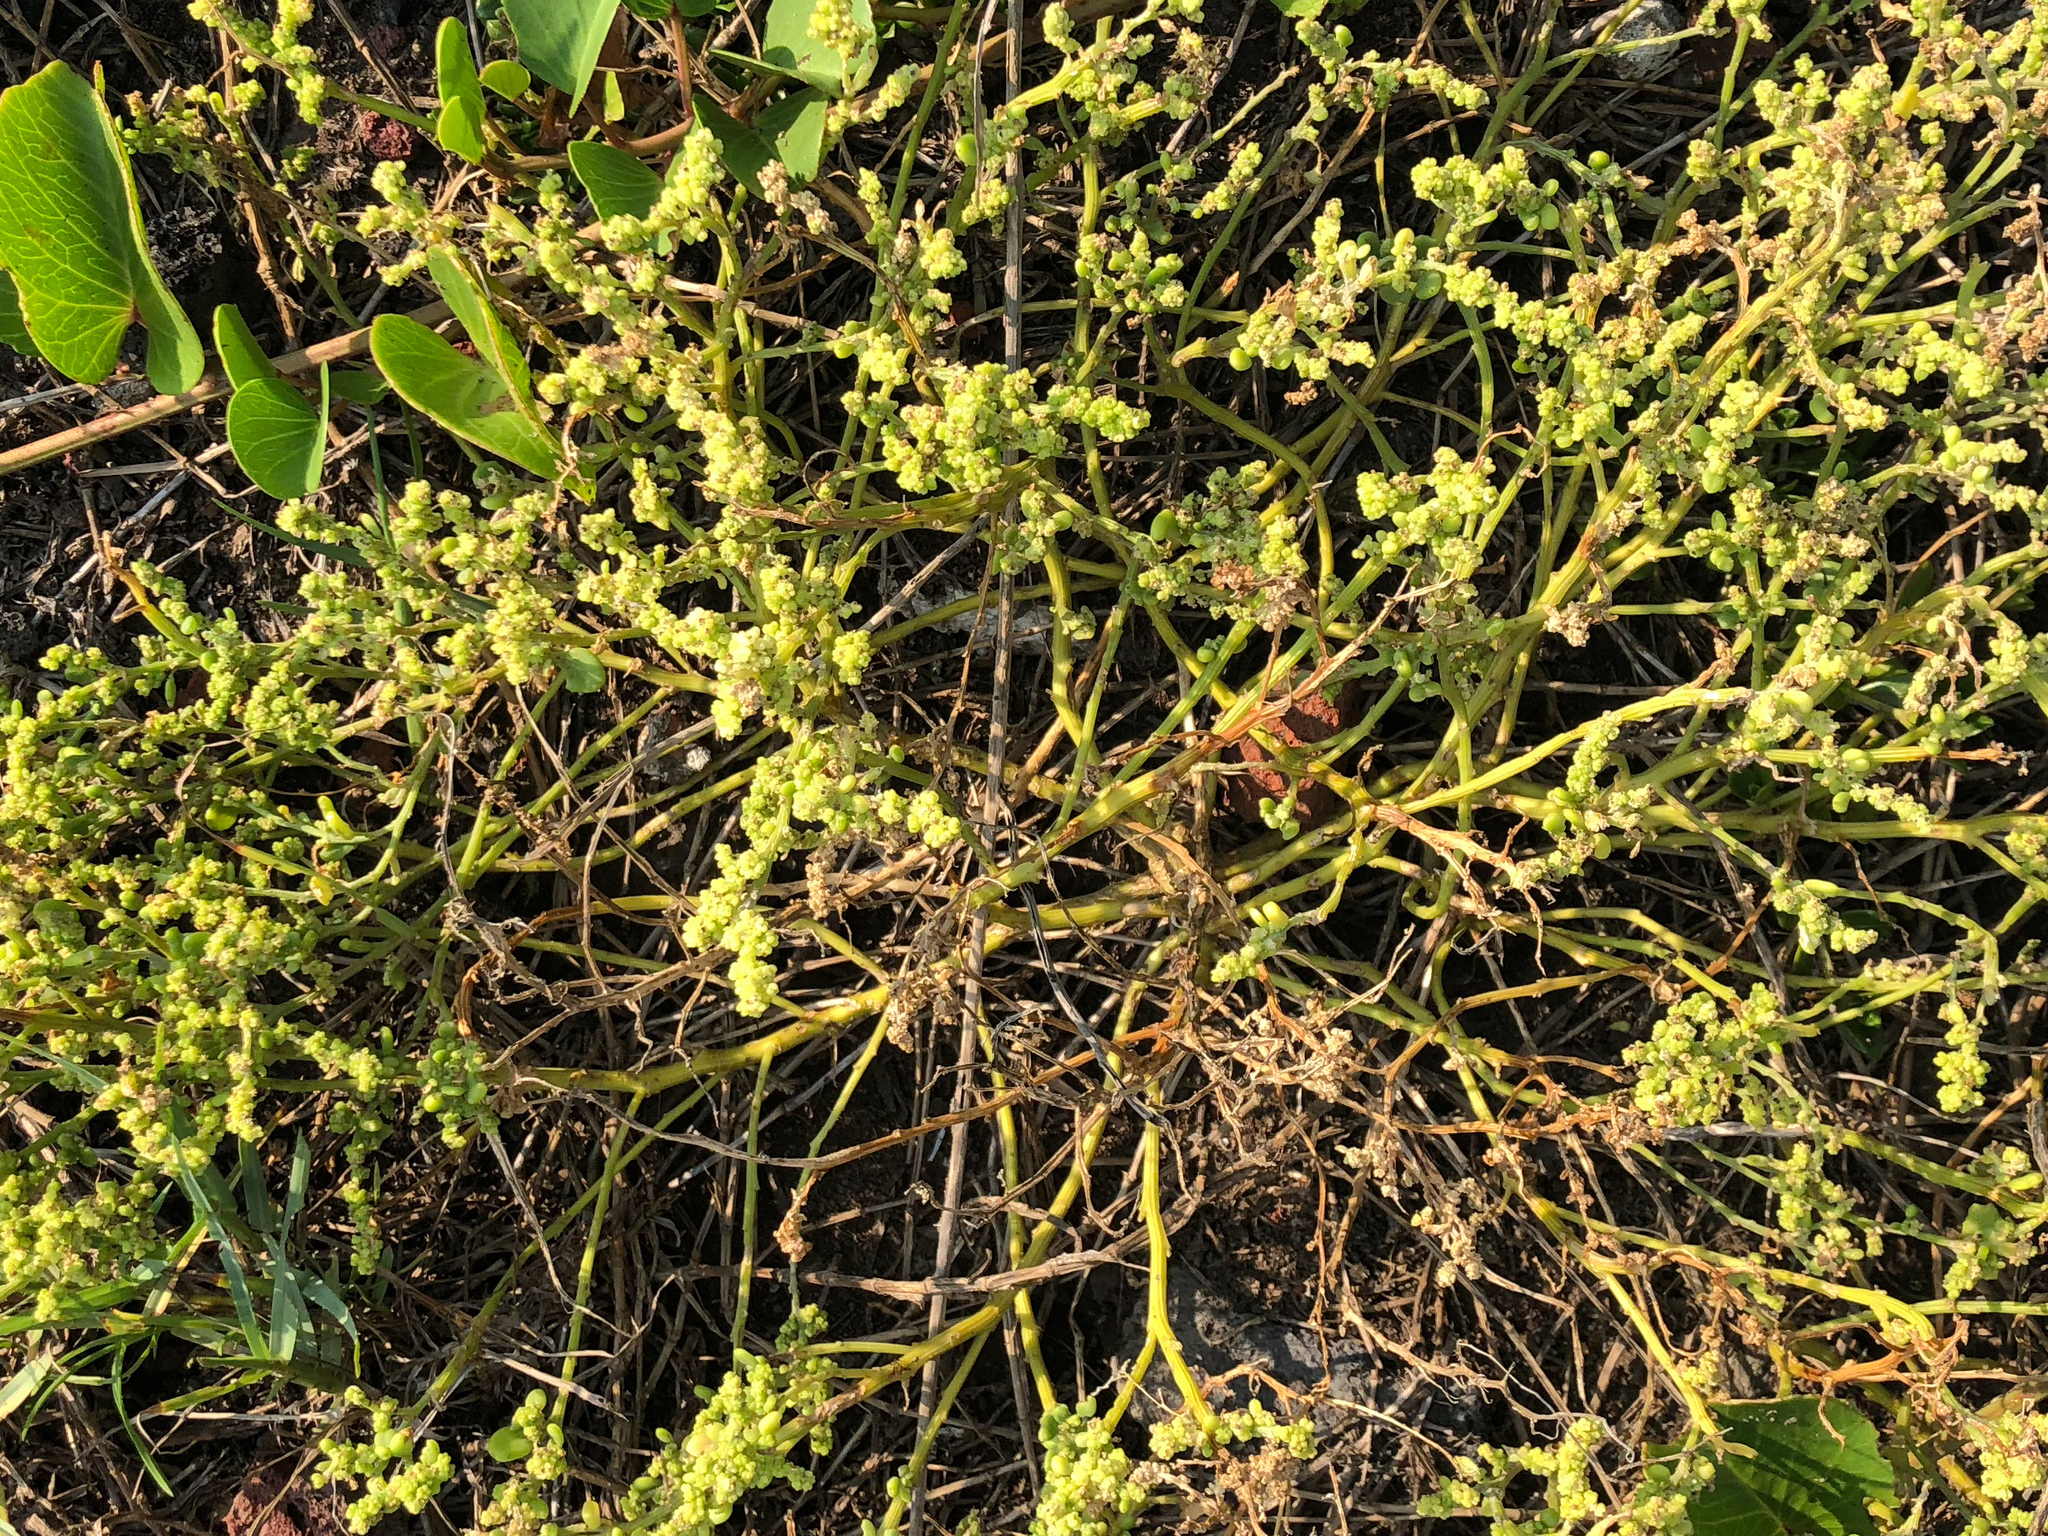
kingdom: Plantae
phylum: Tracheophyta
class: Magnoliopsida
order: Caryophyllales
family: Amaranthaceae
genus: Chenopodium
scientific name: Chenopodium acuminatum
